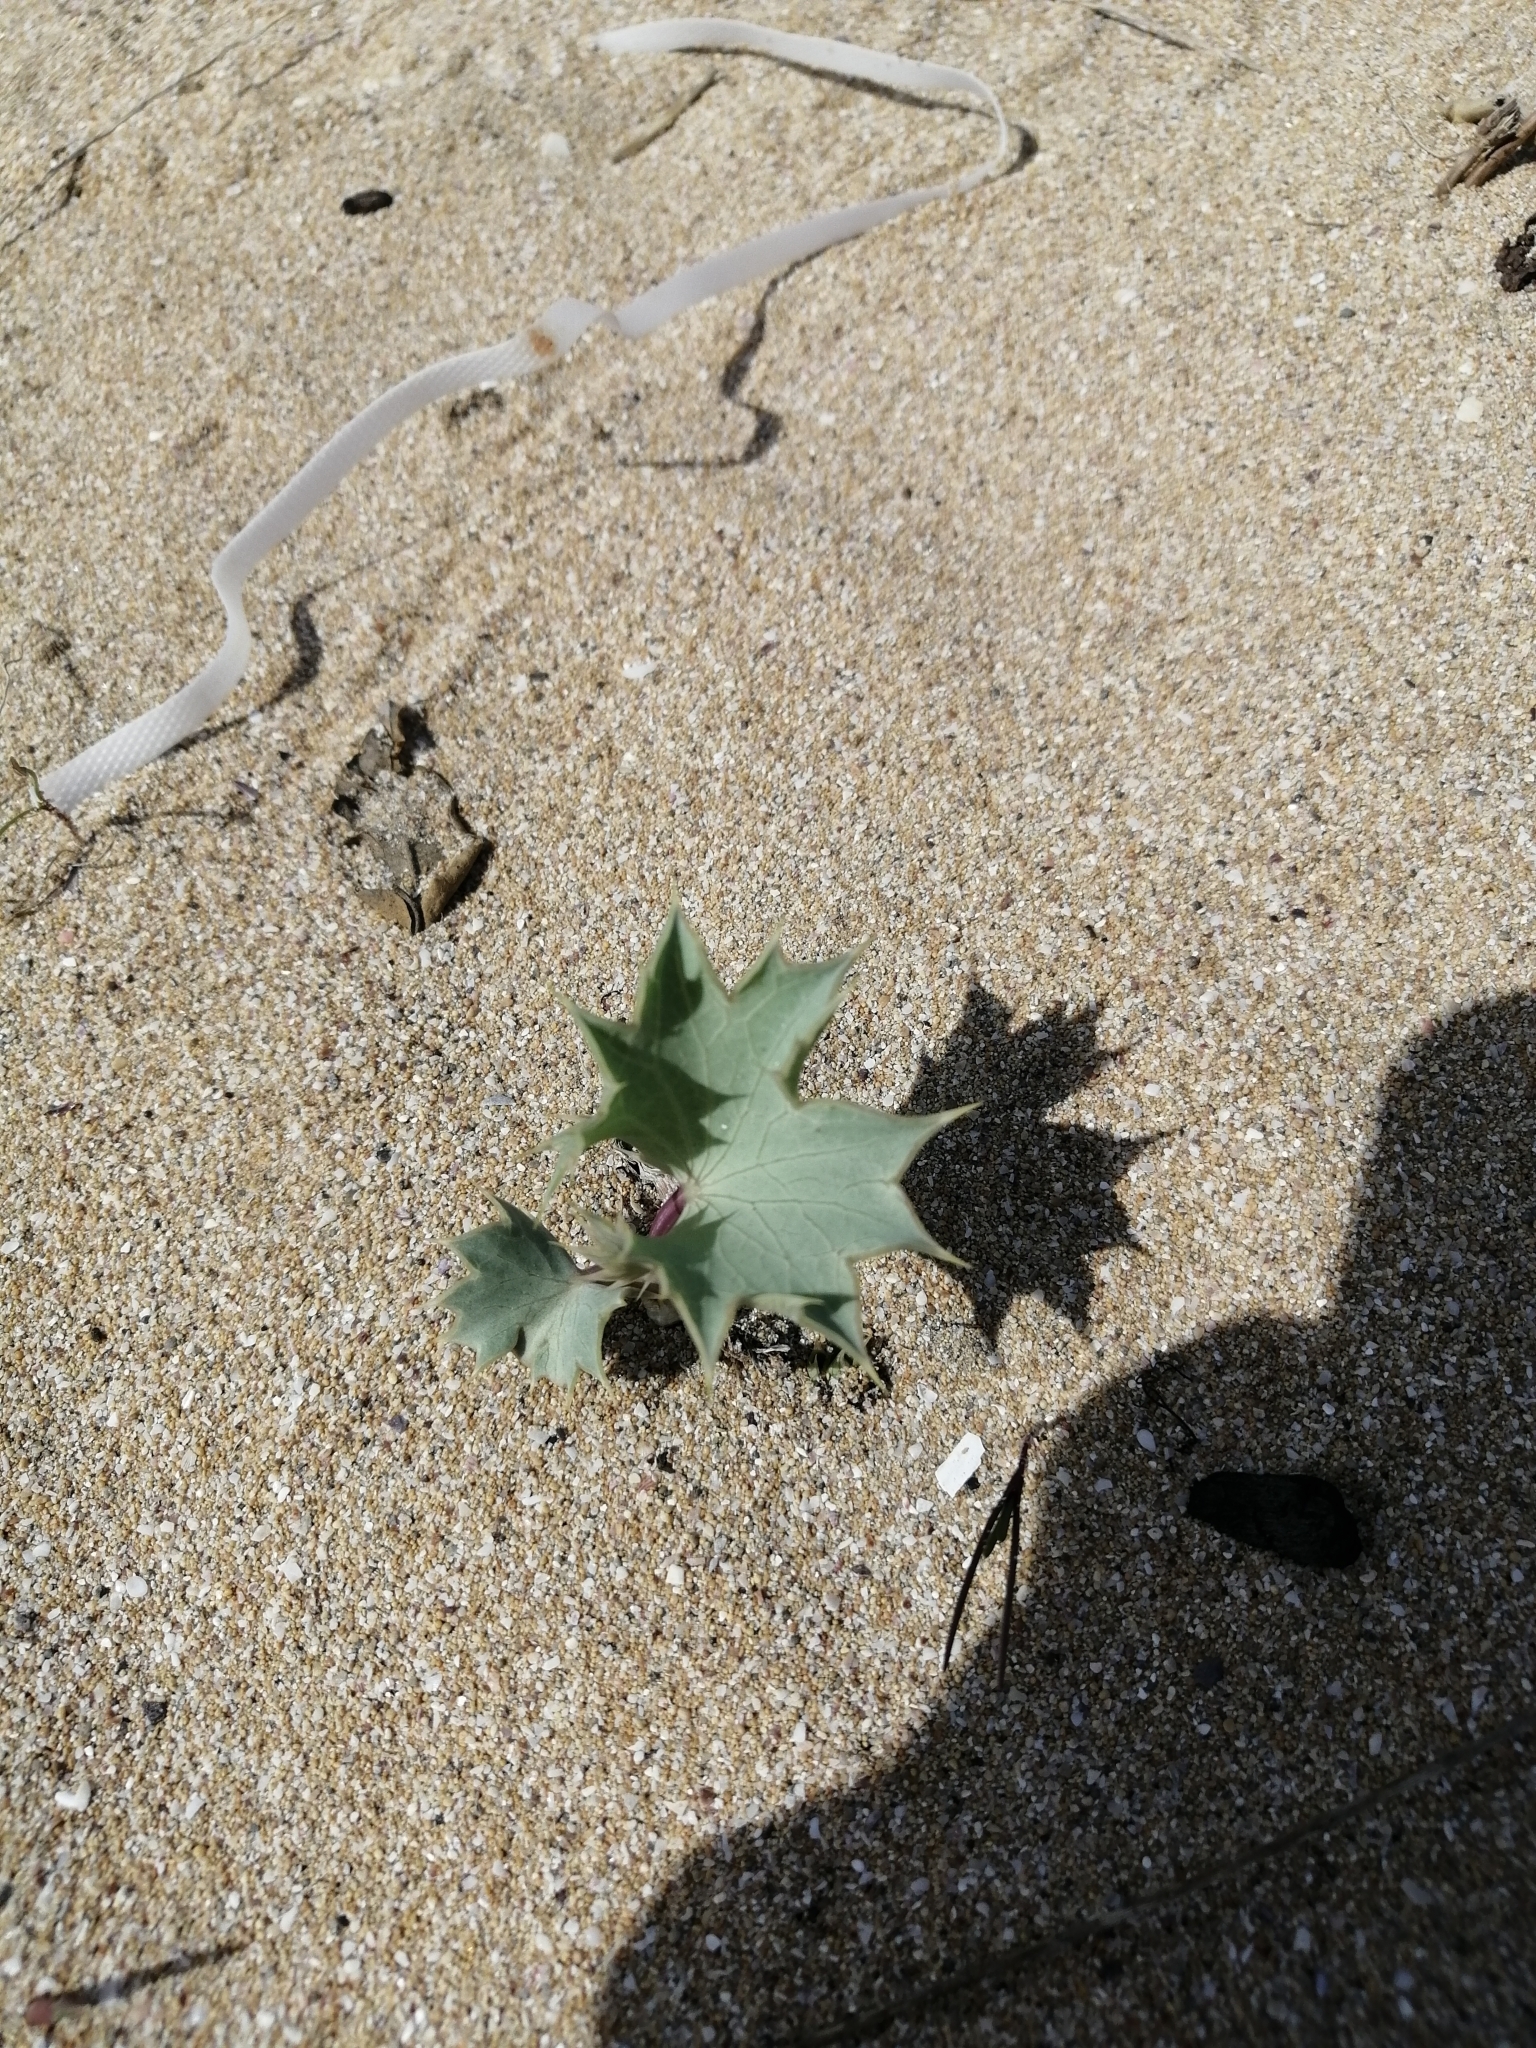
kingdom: Plantae
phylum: Tracheophyta
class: Magnoliopsida
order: Apiales
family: Apiaceae
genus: Eryngium
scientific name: Eryngium maritimum
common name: Sea-holly
